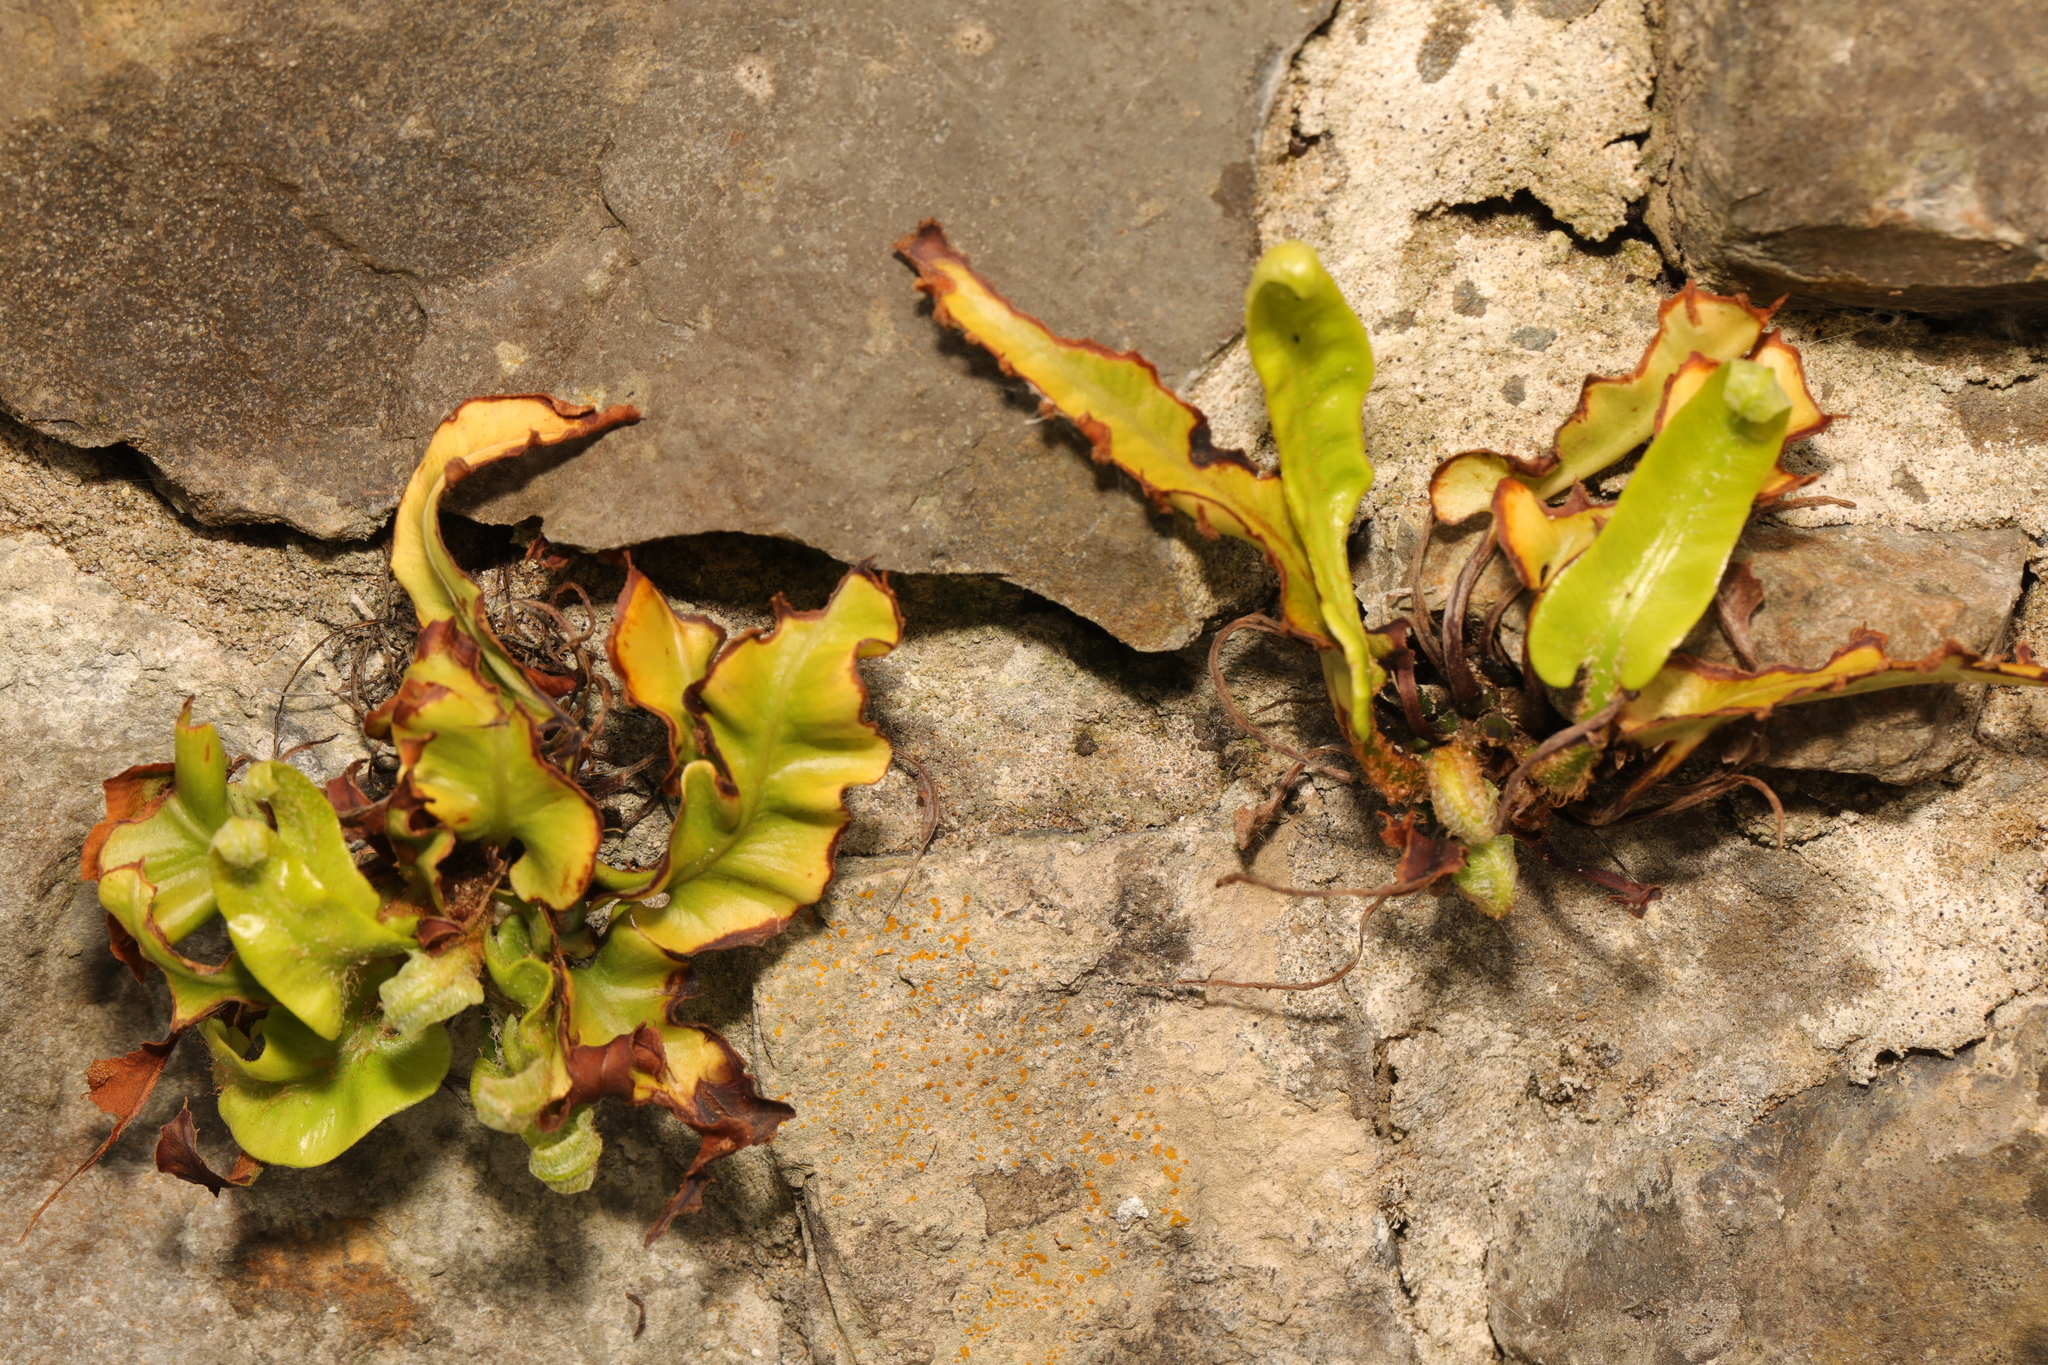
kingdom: Plantae
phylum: Tracheophyta
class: Polypodiopsida
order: Polypodiales
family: Aspleniaceae
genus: Asplenium
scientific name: Asplenium scolopendrium
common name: Hart's-tongue fern
